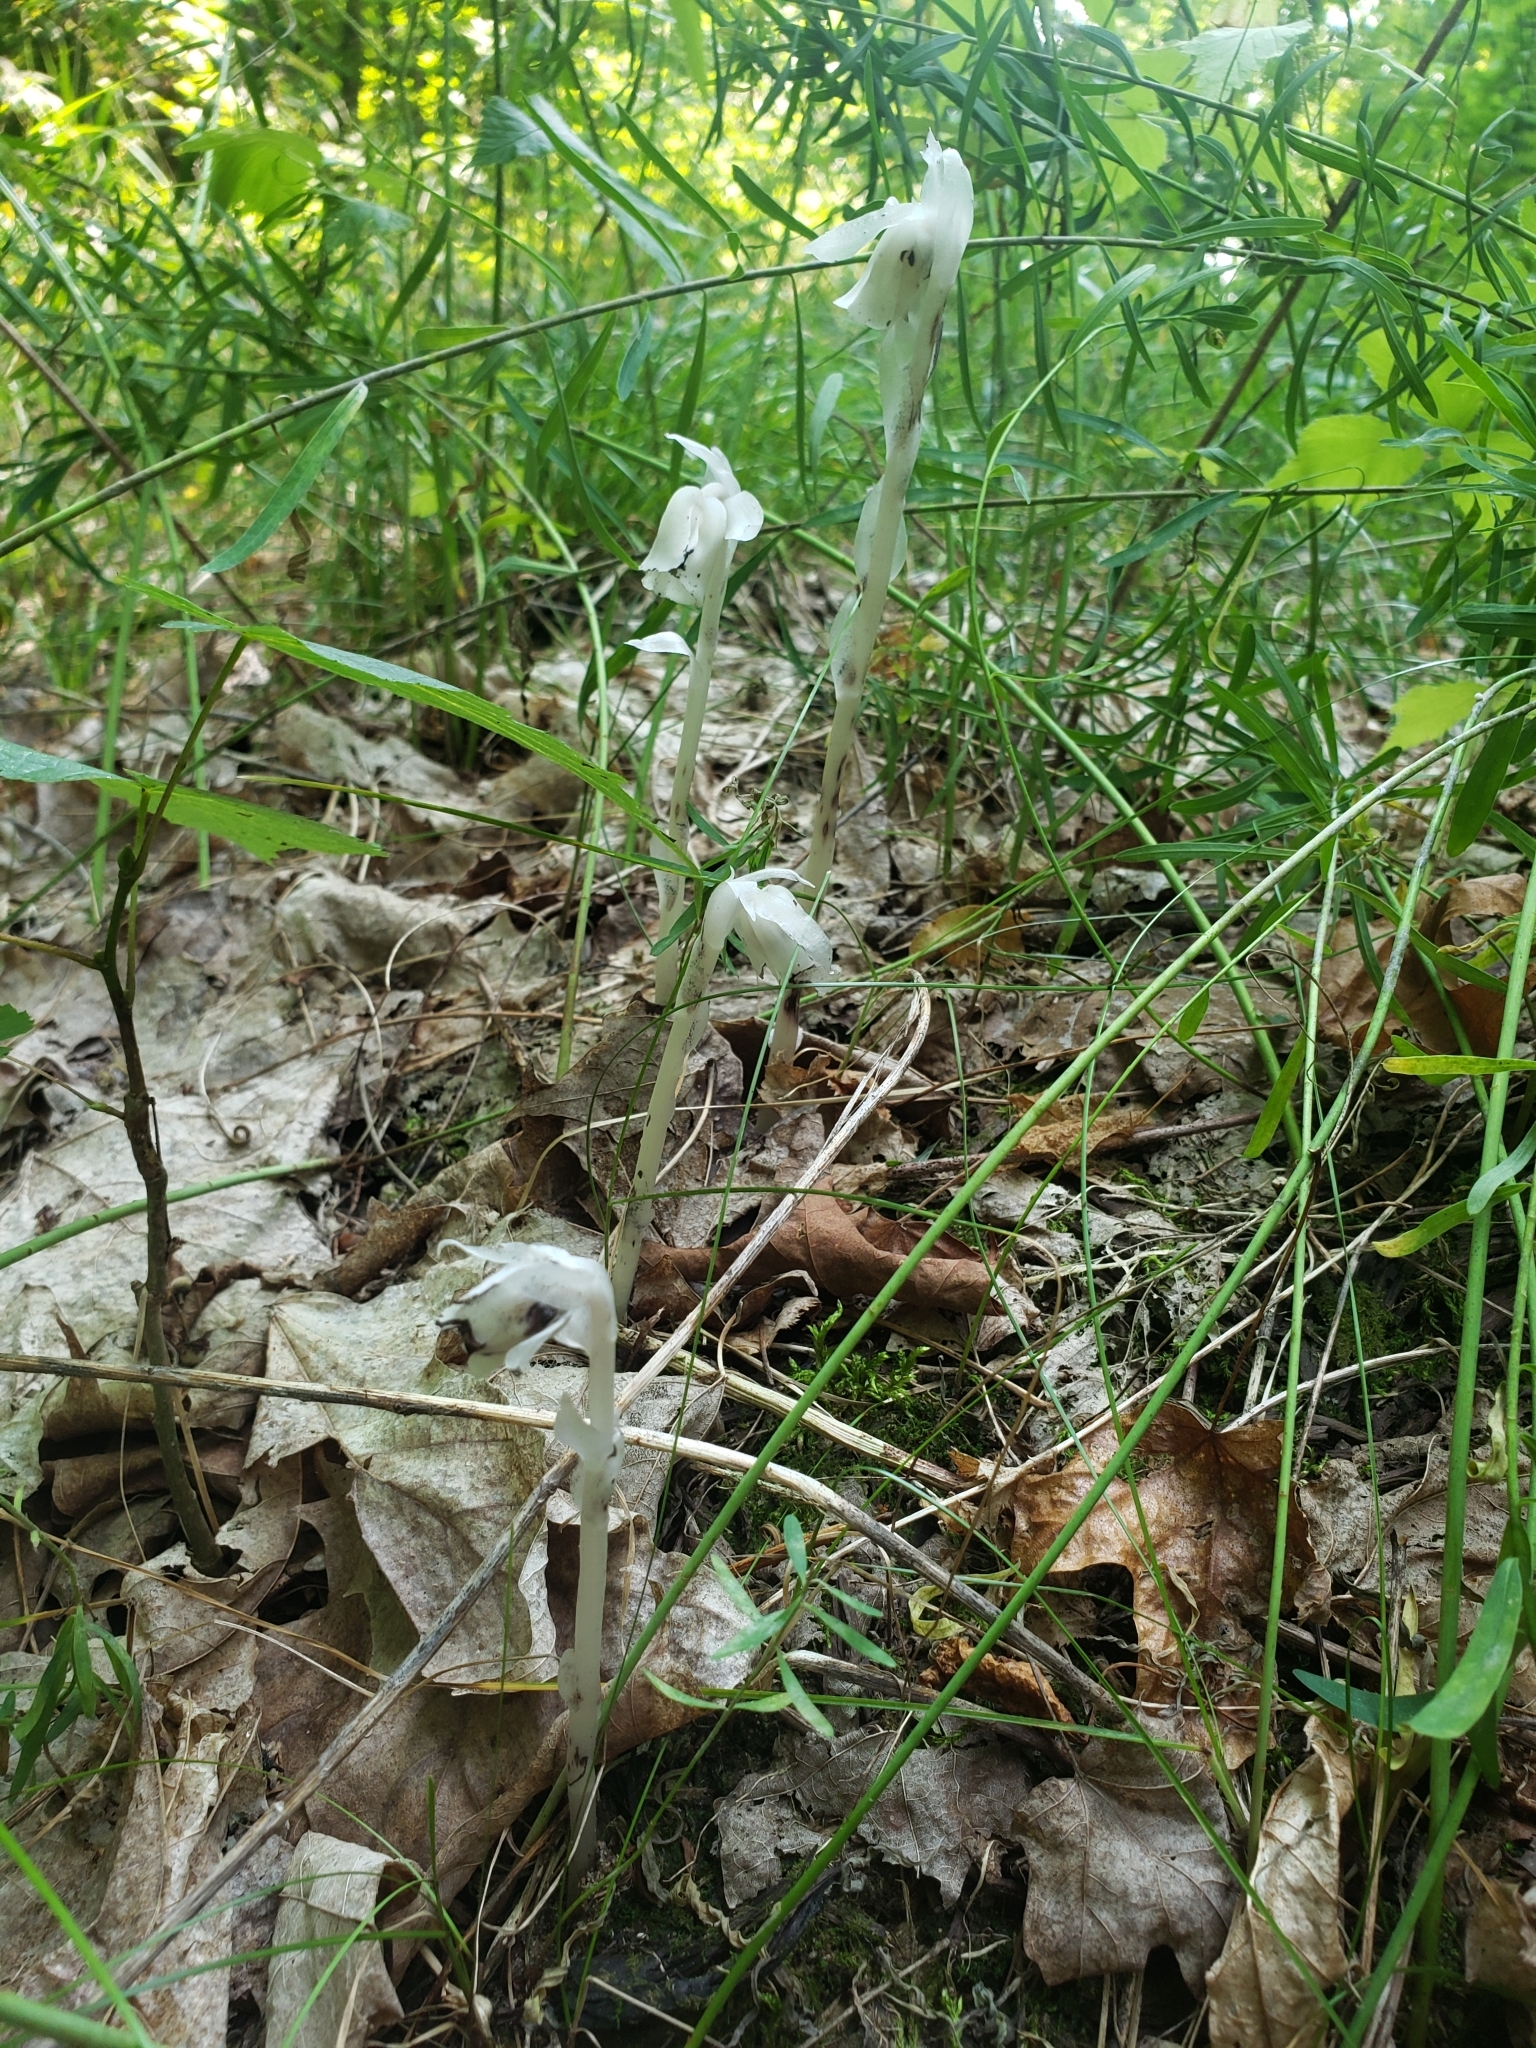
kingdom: Plantae
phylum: Tracheophyta
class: Magnoliopsida
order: Ericales
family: Ericaceae
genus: Monotropa
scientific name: Monotropa uniflora
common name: Convulsion root
